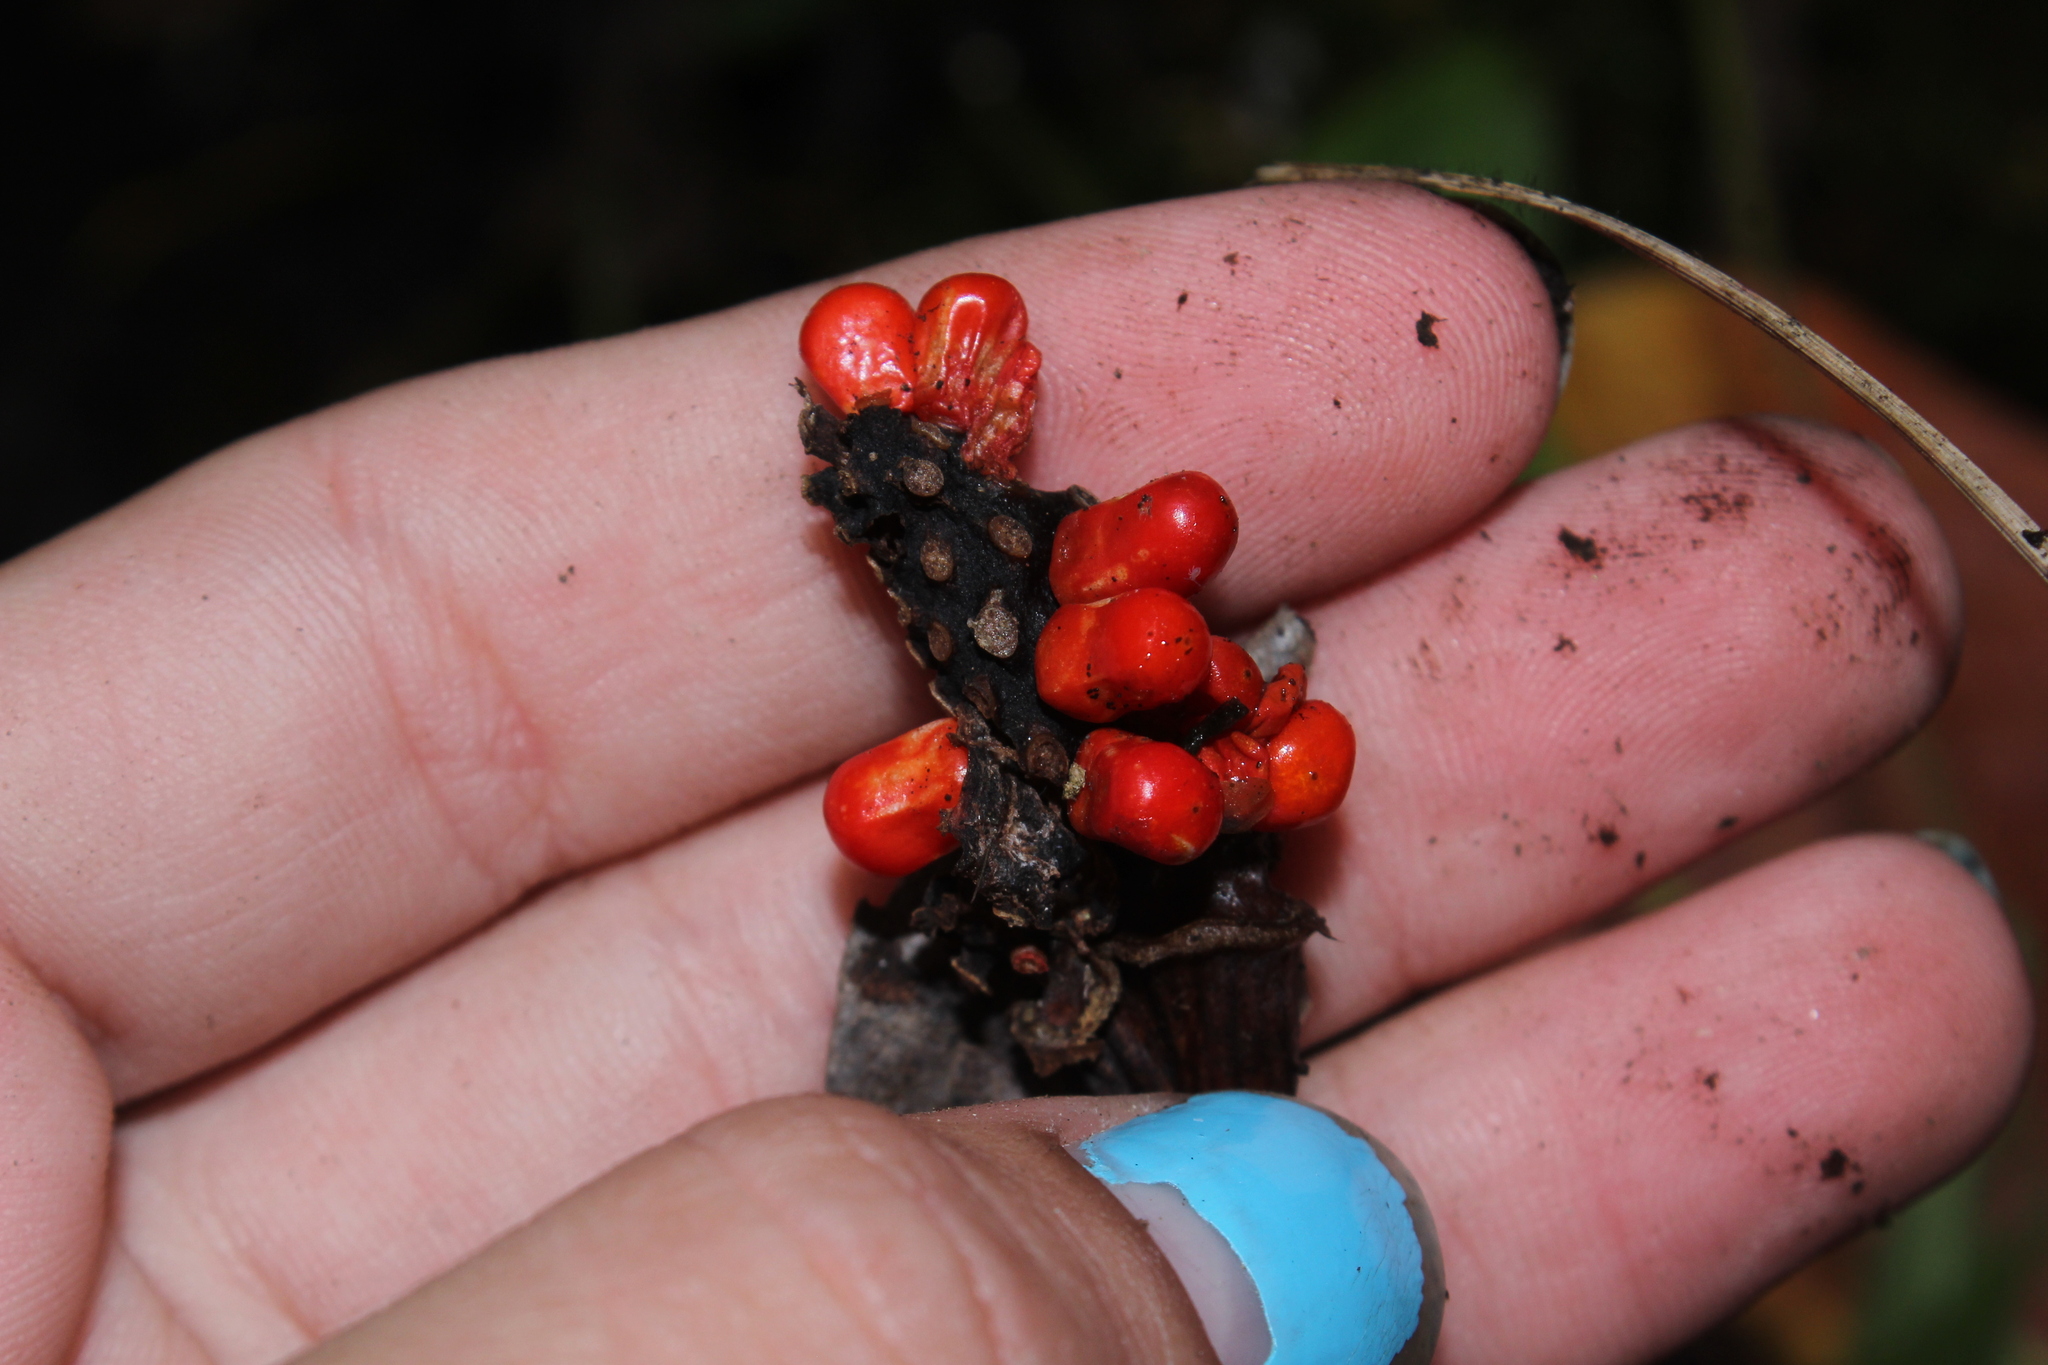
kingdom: Plantae
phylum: Tracheophyta
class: Liliopsida
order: Alismatales
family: Araceae
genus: Arisaema
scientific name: Arisaema triphyllum
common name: Jack-in-the-pulpit
